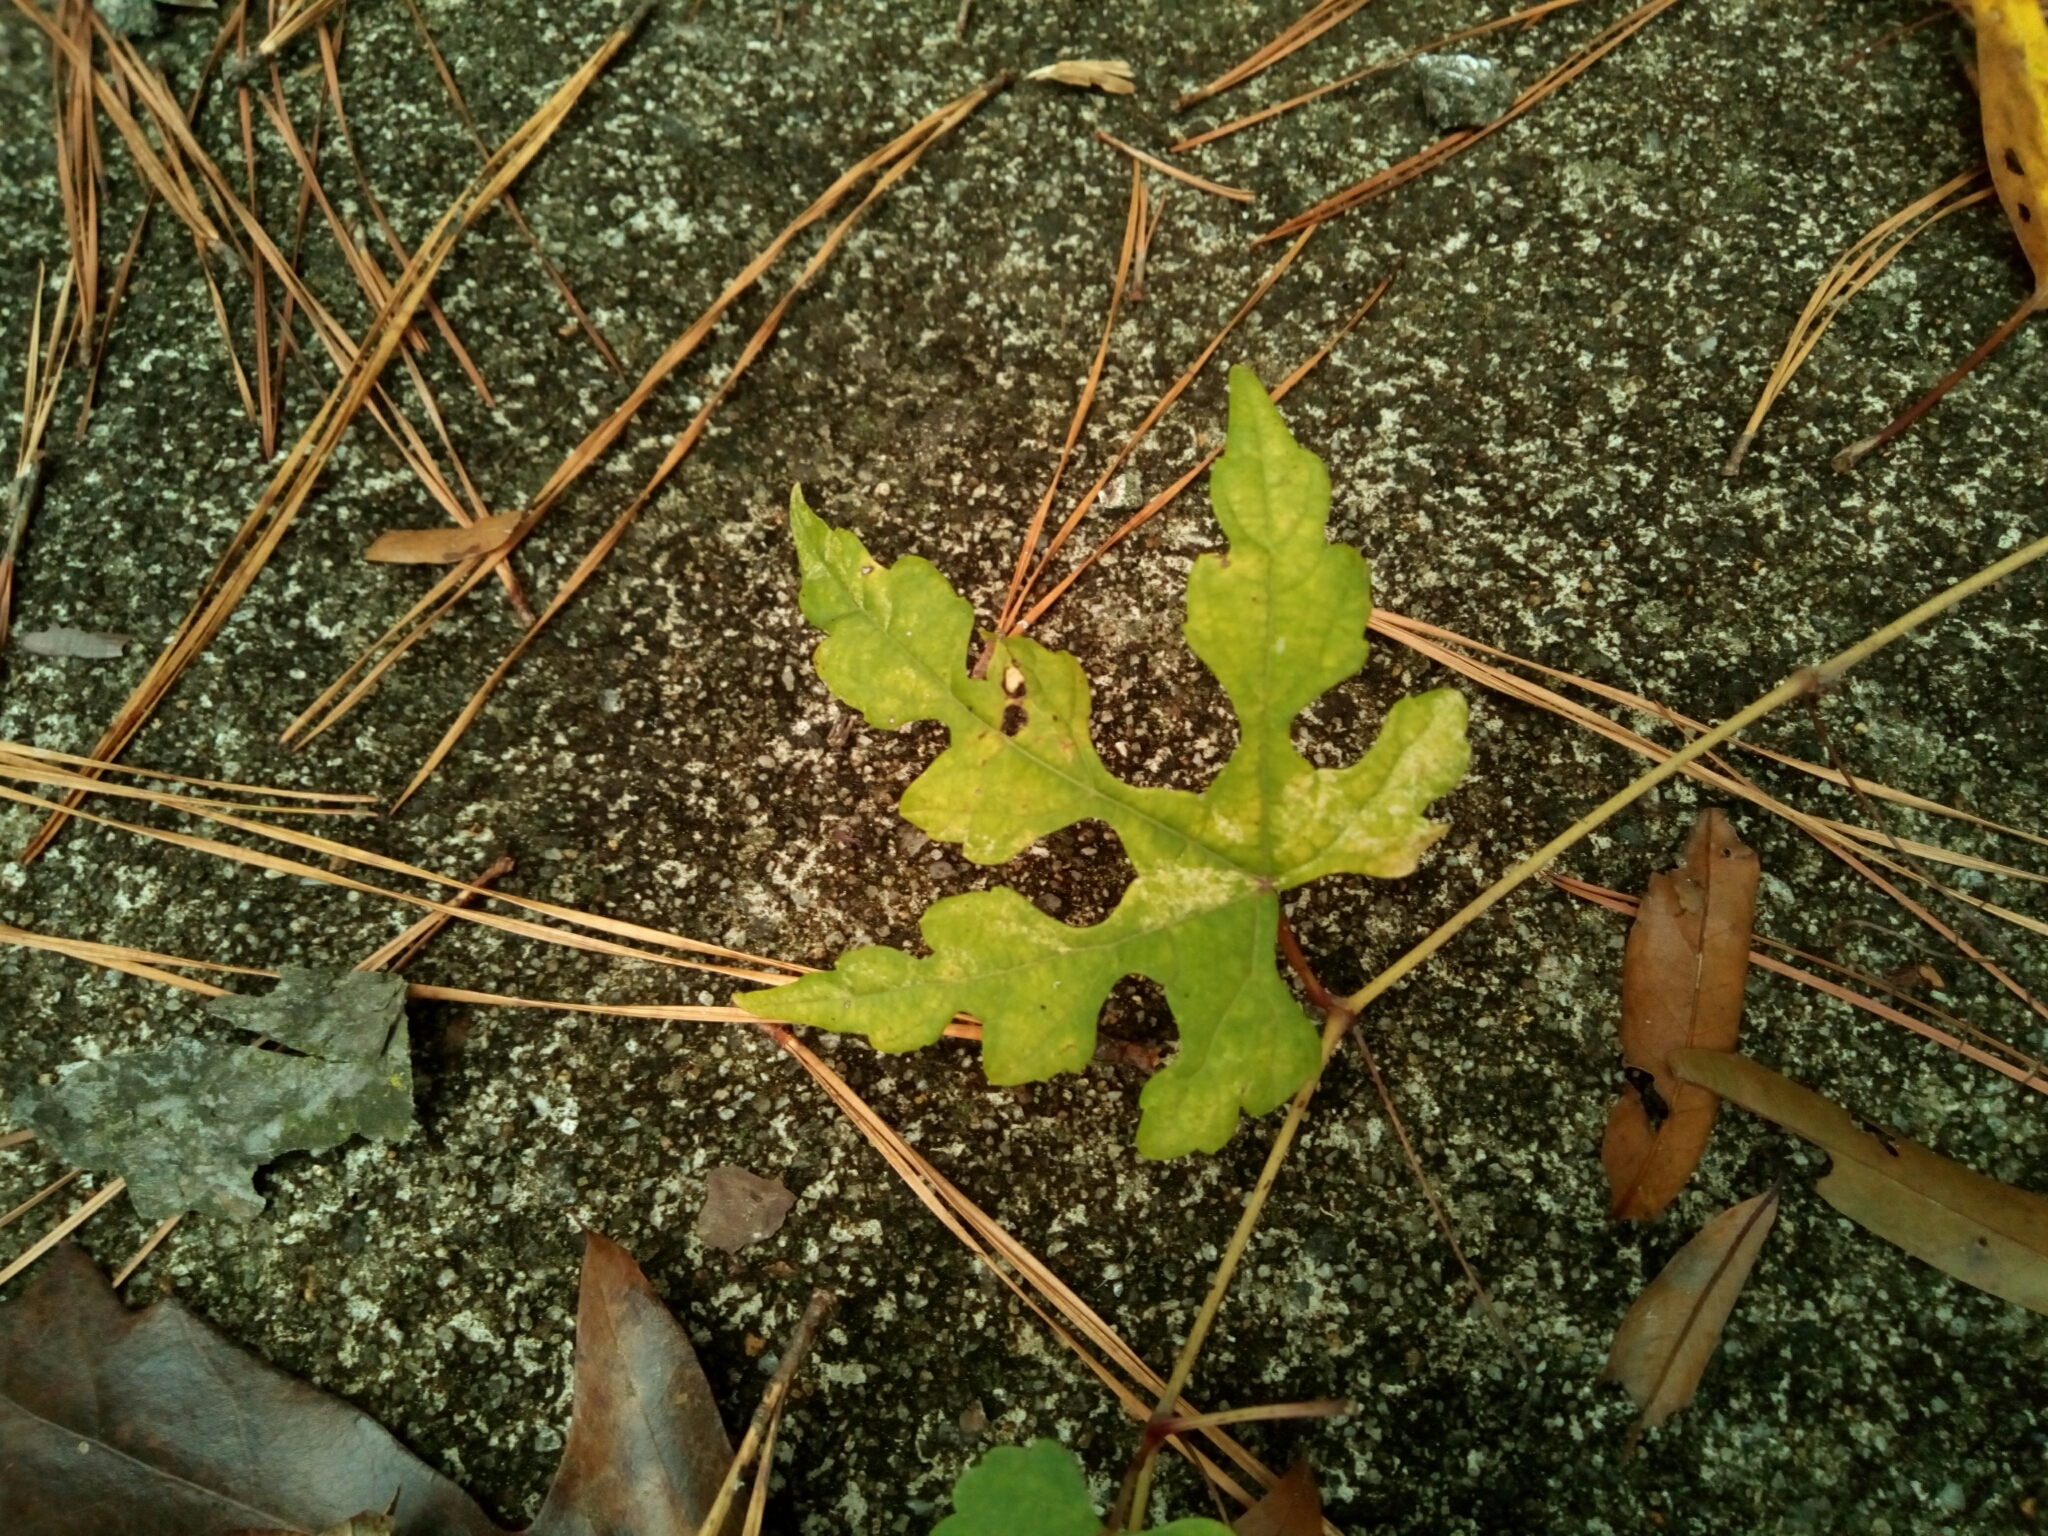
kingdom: Plantae
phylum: Tracheophyta
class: Magnoliopsida
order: Vitales
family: Vitaceae
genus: Ampelopsis
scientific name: Ampelopsis glandulosa
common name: Amur peppervine
